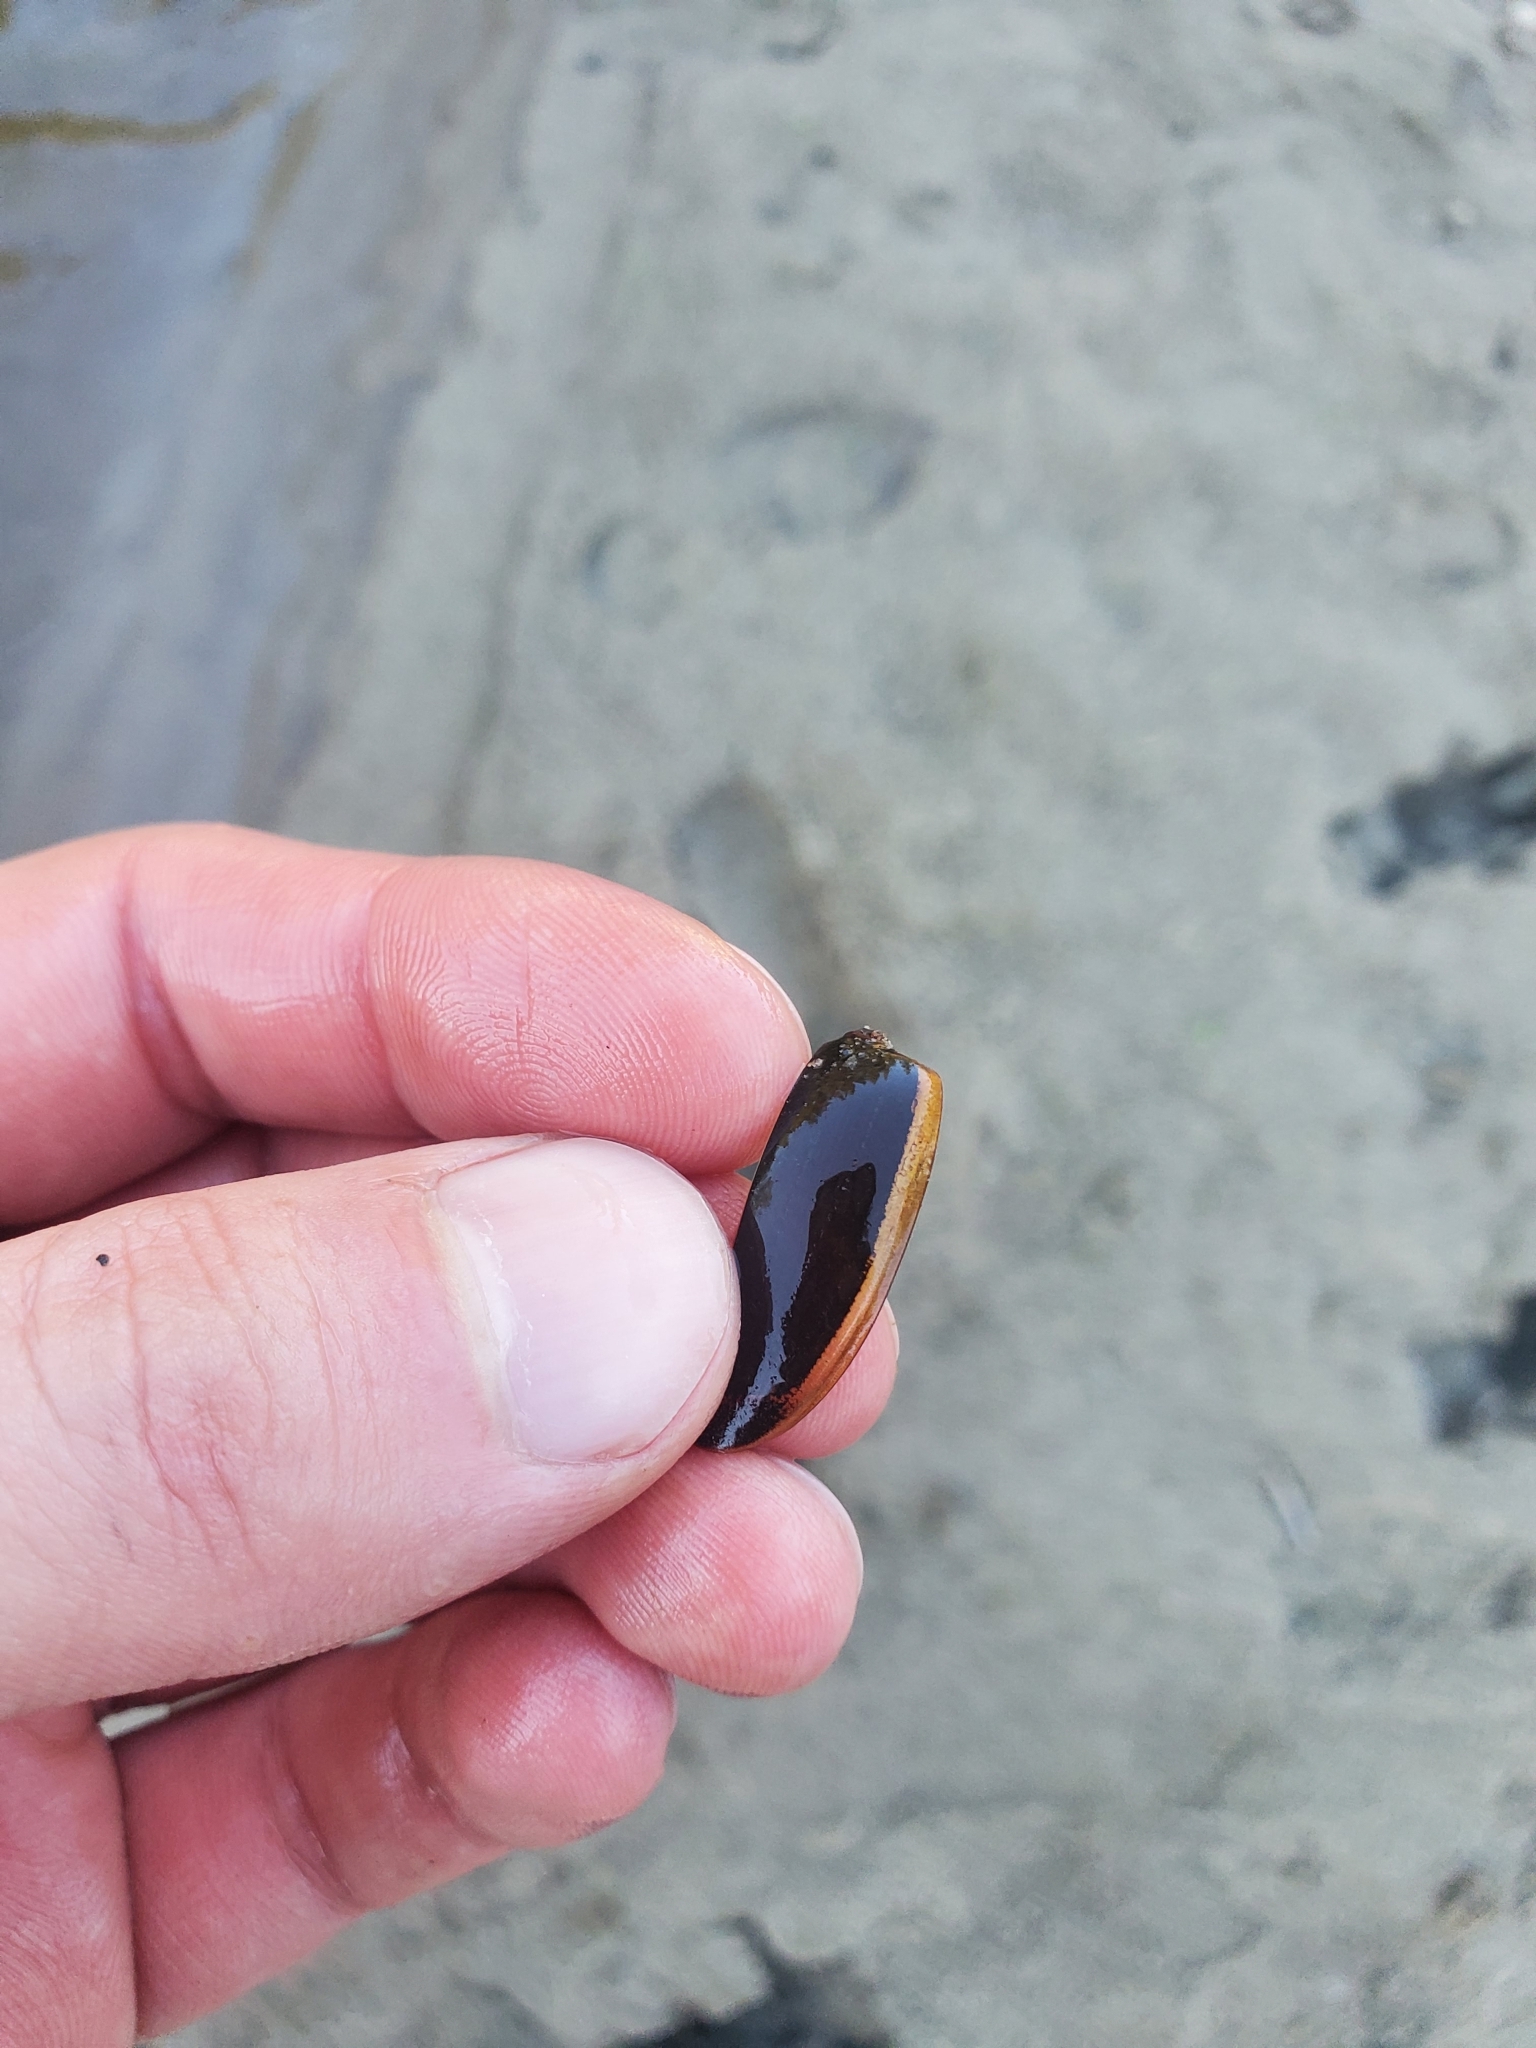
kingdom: Animalia
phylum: Arthropoda
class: Insecta
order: Coleoptera
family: Dytiscidae
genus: Dytiscus
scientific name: Dytiscus
